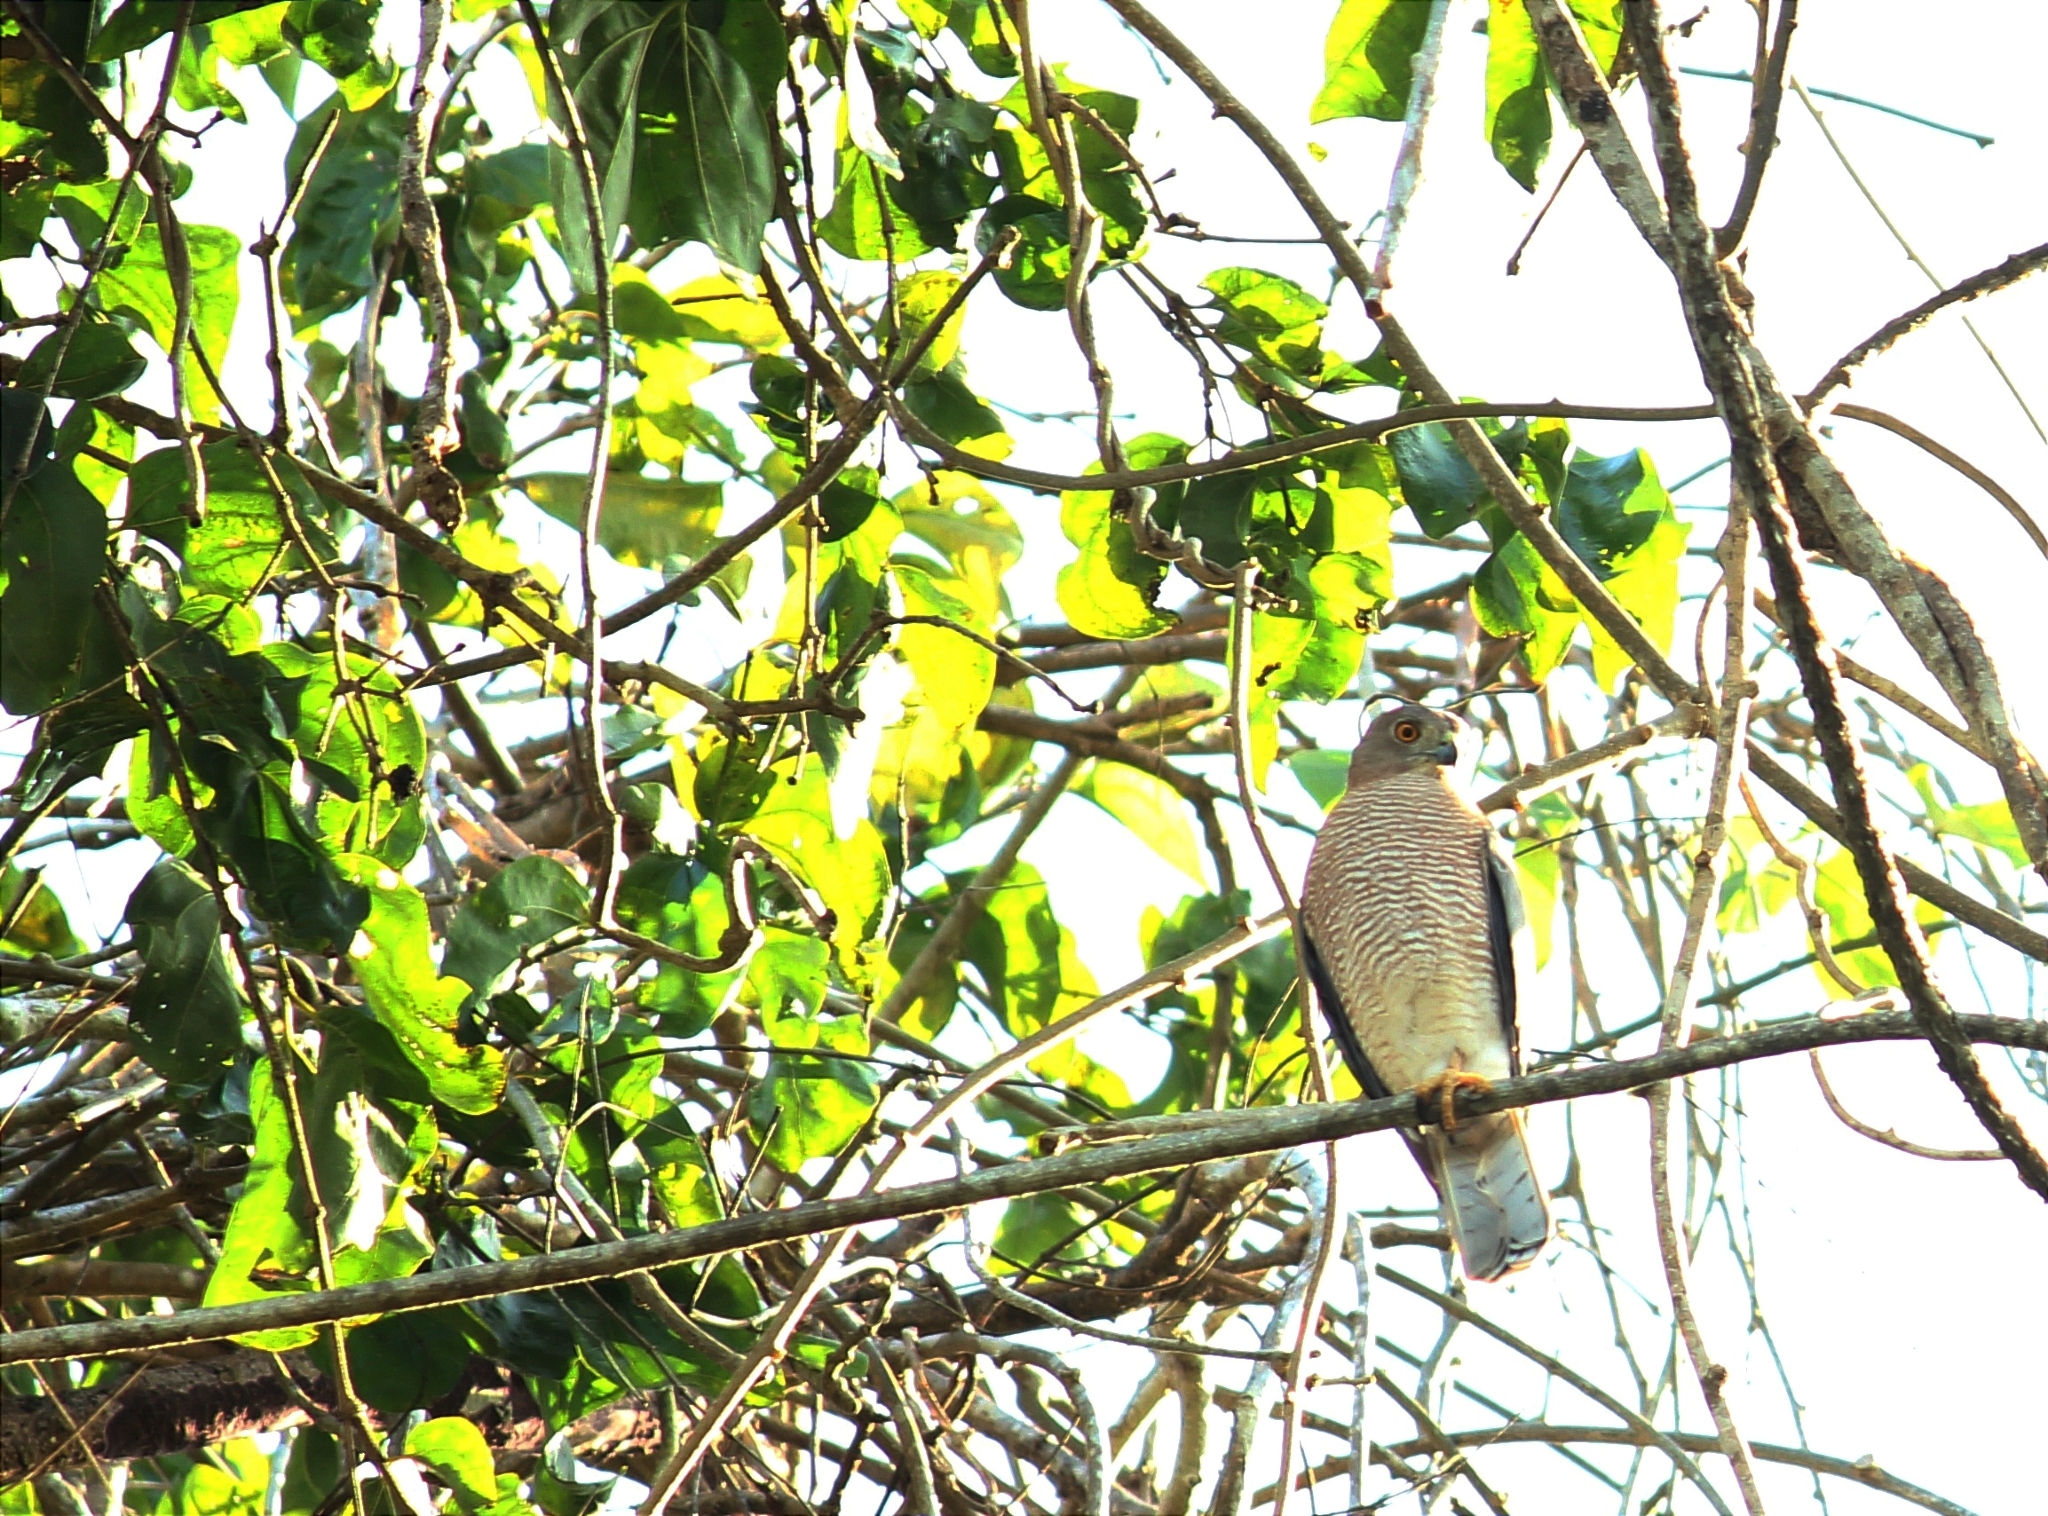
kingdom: Animalia
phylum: Chordata
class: Aves
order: Accipitriformes
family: Accipitridae
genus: Accipiter
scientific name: Accipiter badius
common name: Shikra
